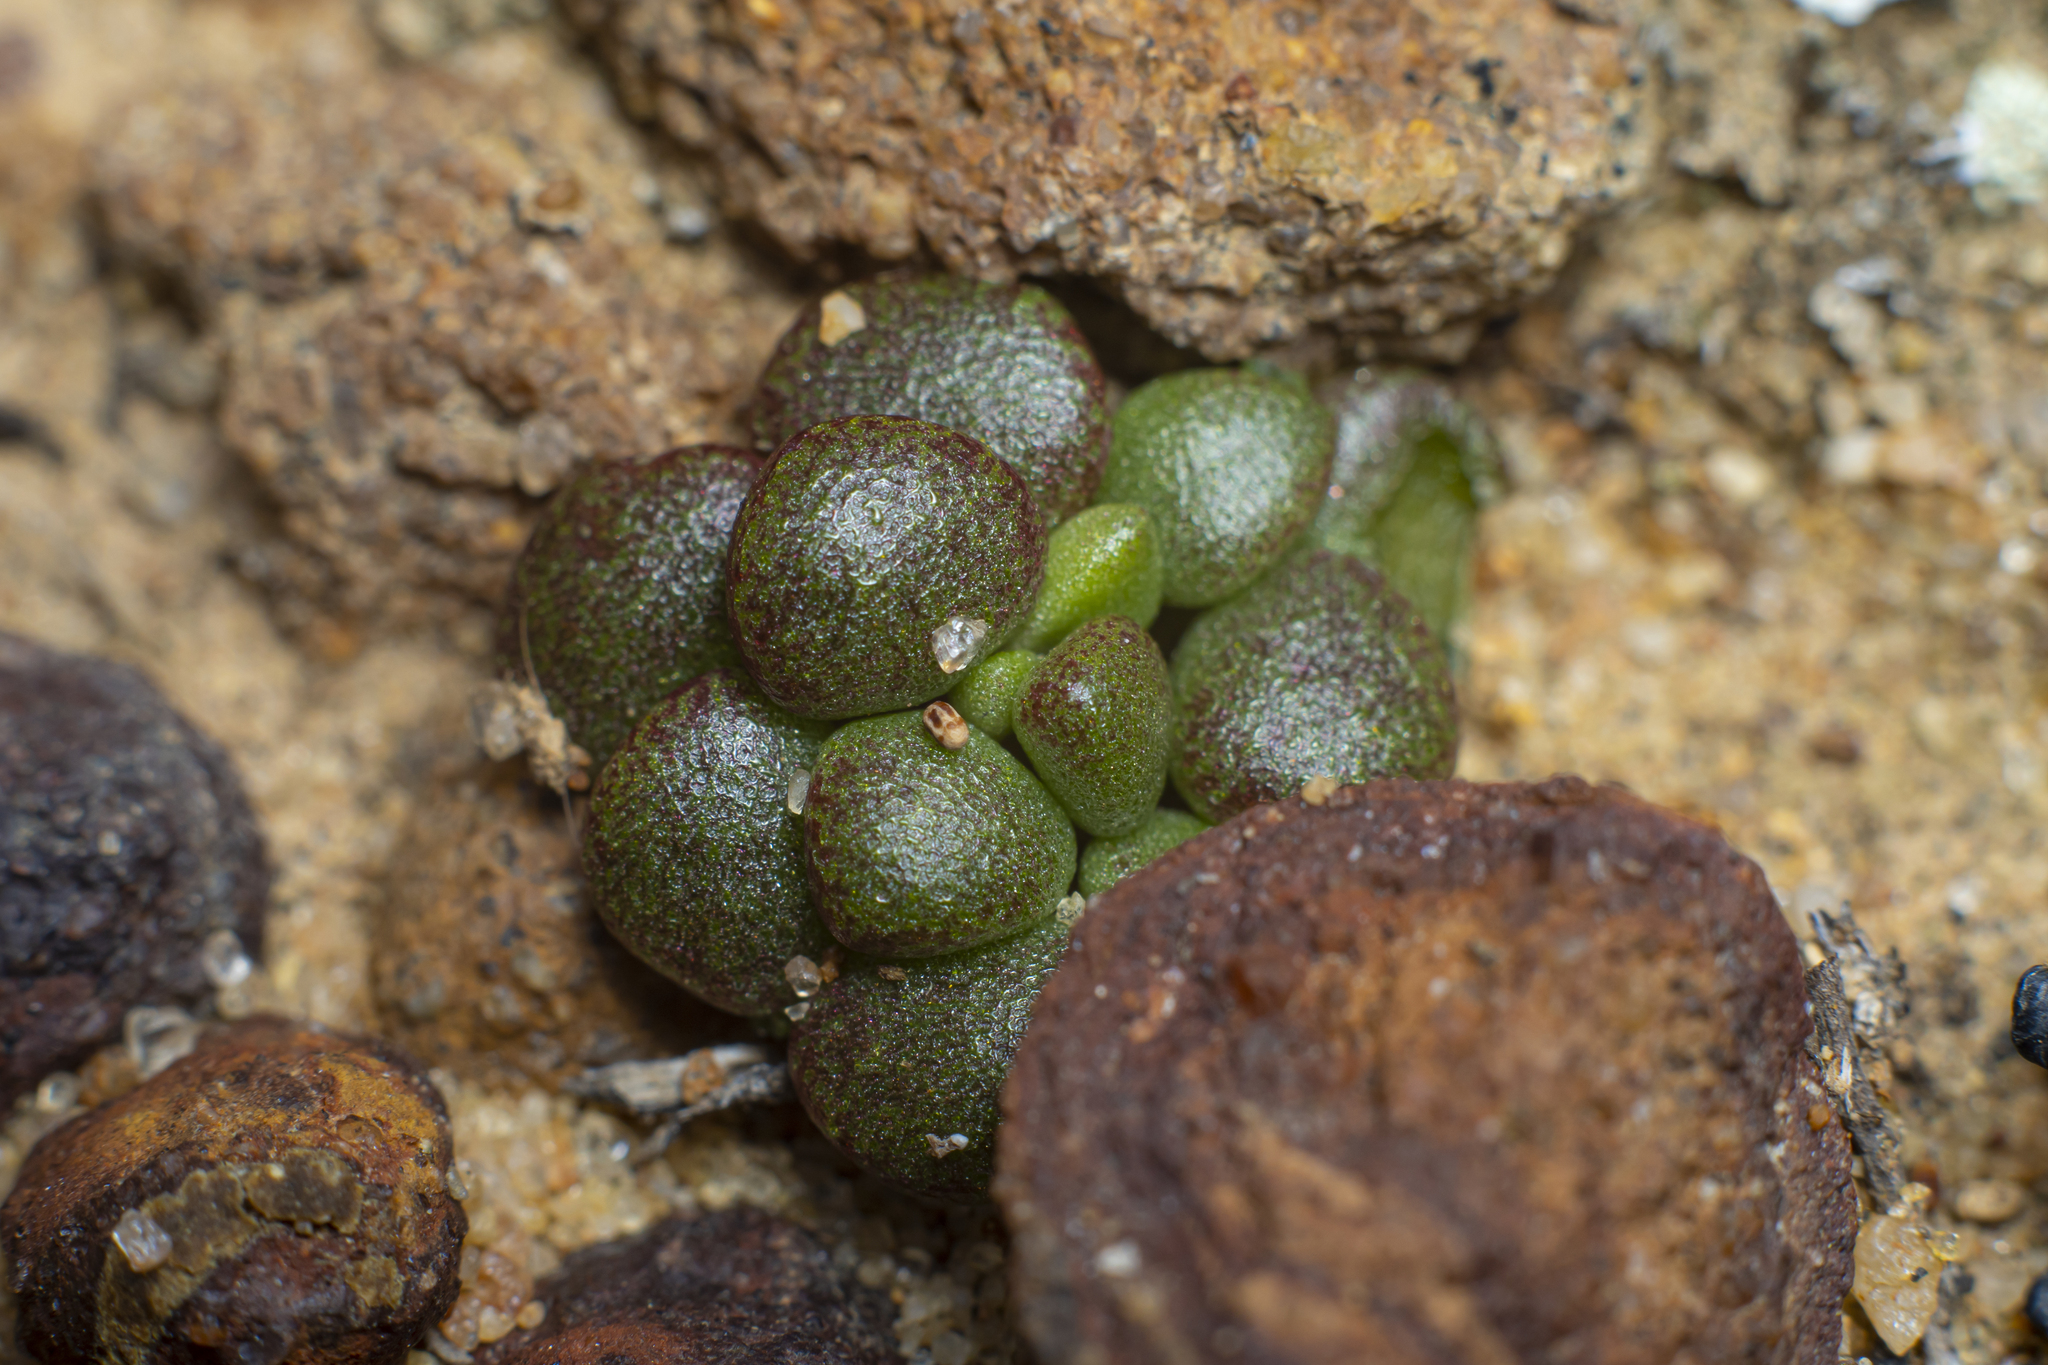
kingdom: Plantae
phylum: Tracheophyta
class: Magnoliopsida
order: Saxifragales
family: Crassulaceae
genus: Dudleya
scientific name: Dudleya blochmaniae
